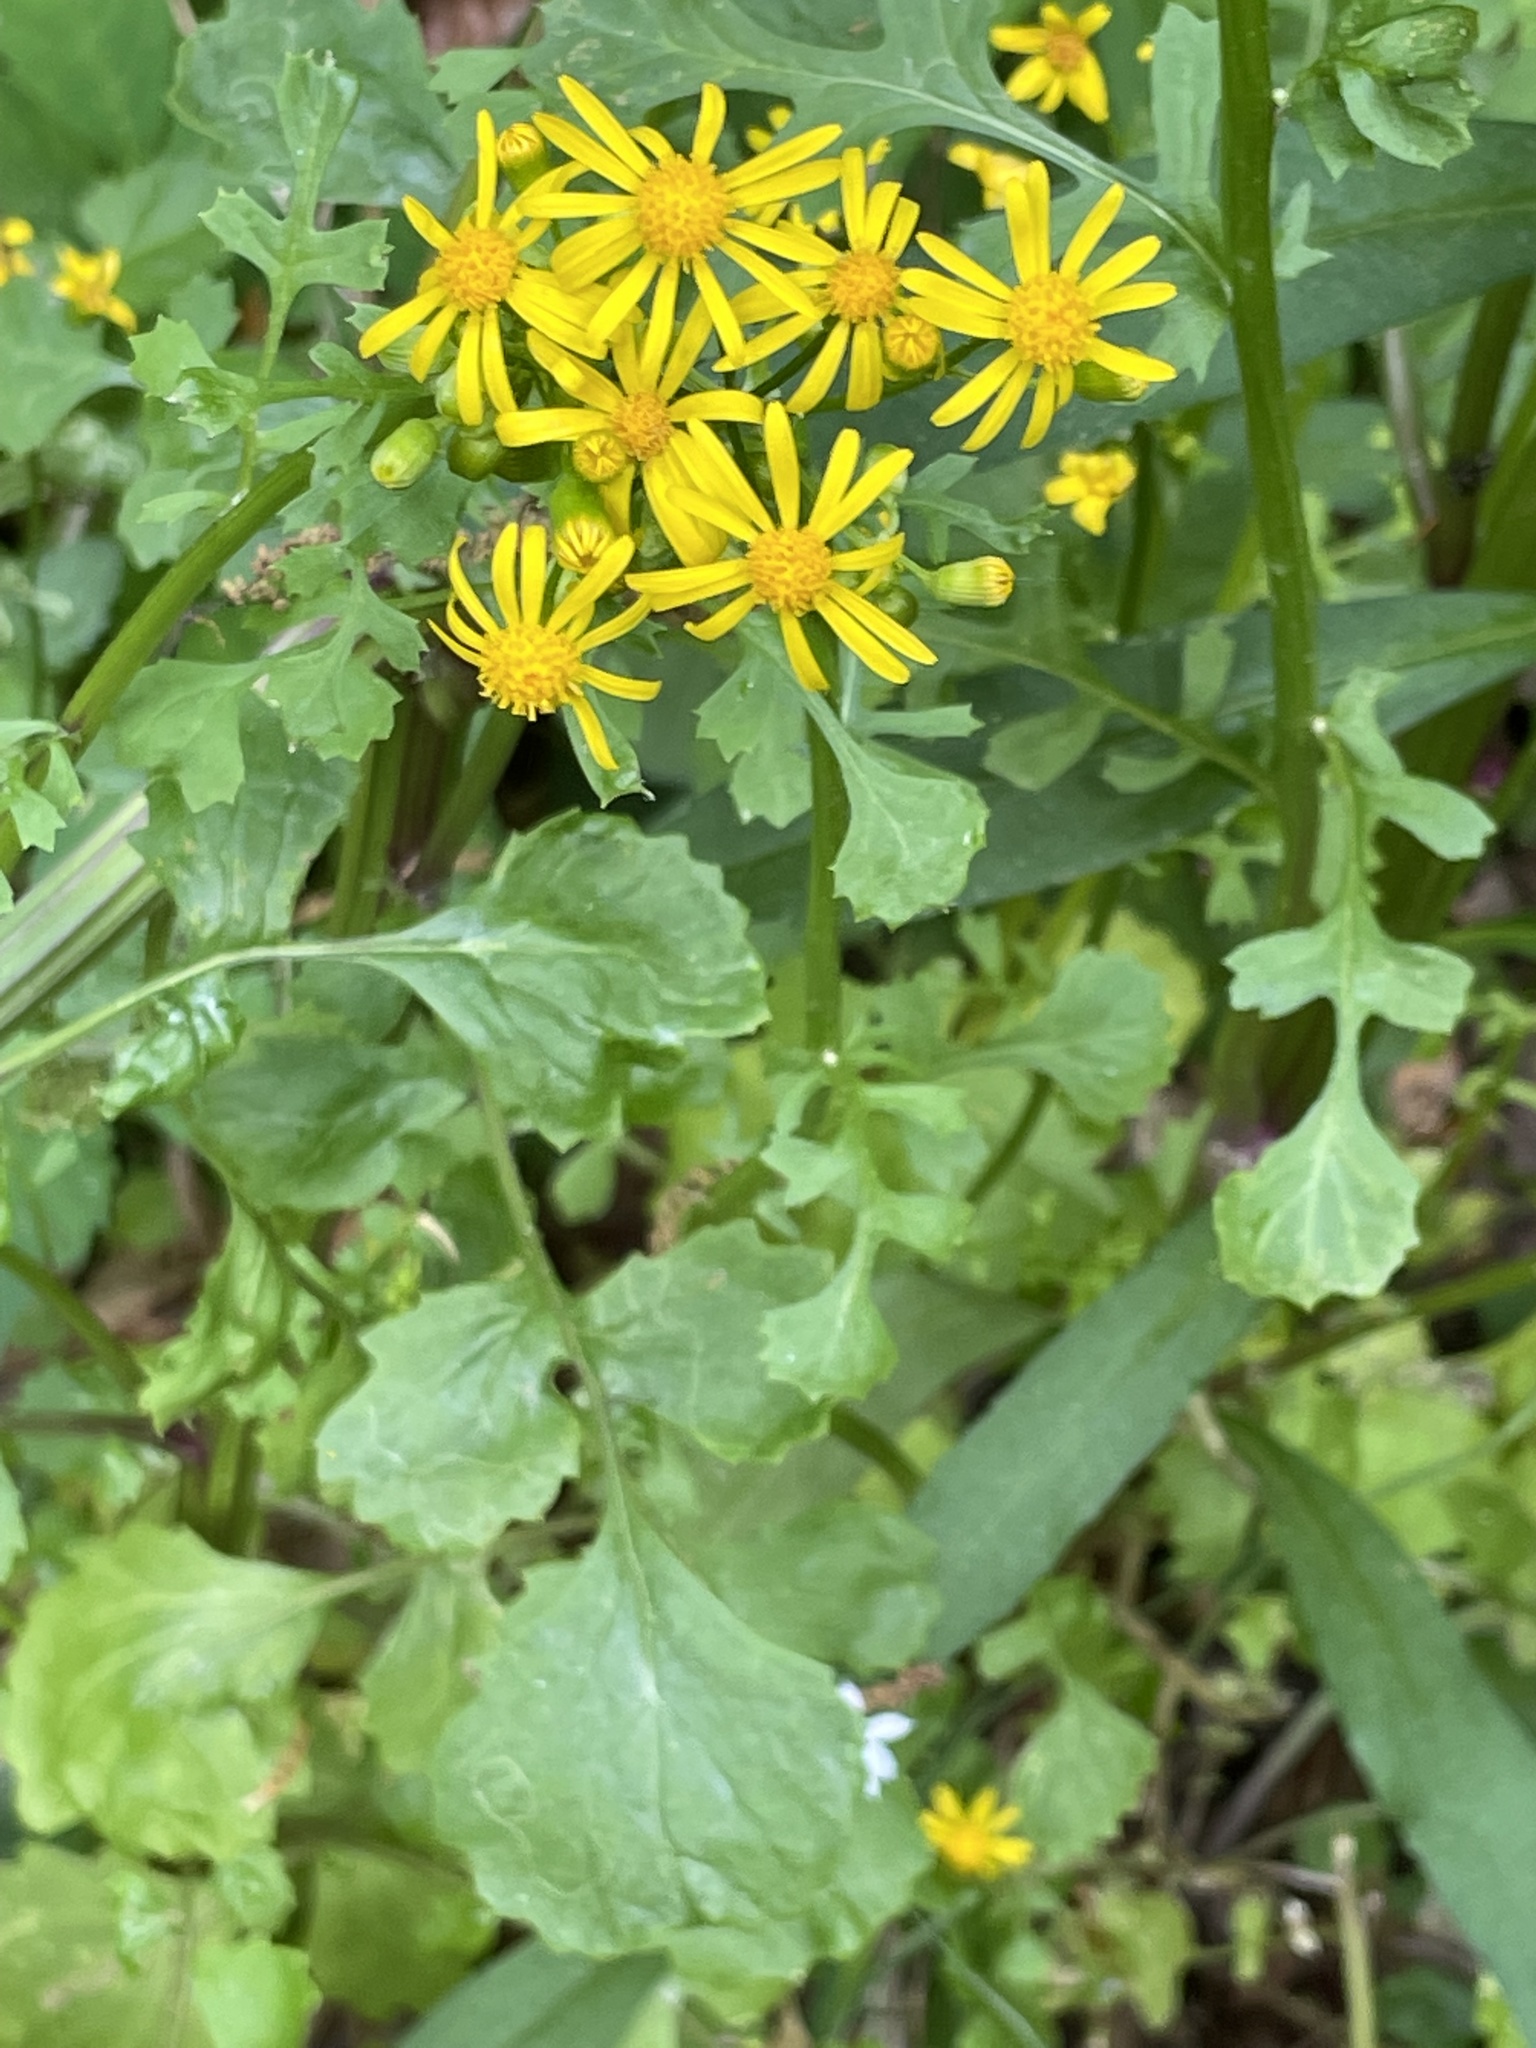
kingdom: Plantae
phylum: Tracheophyta
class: Magnoliopsida
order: Asterales
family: Asteraceae
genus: Packera
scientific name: Packera glabella
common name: Butterweed
